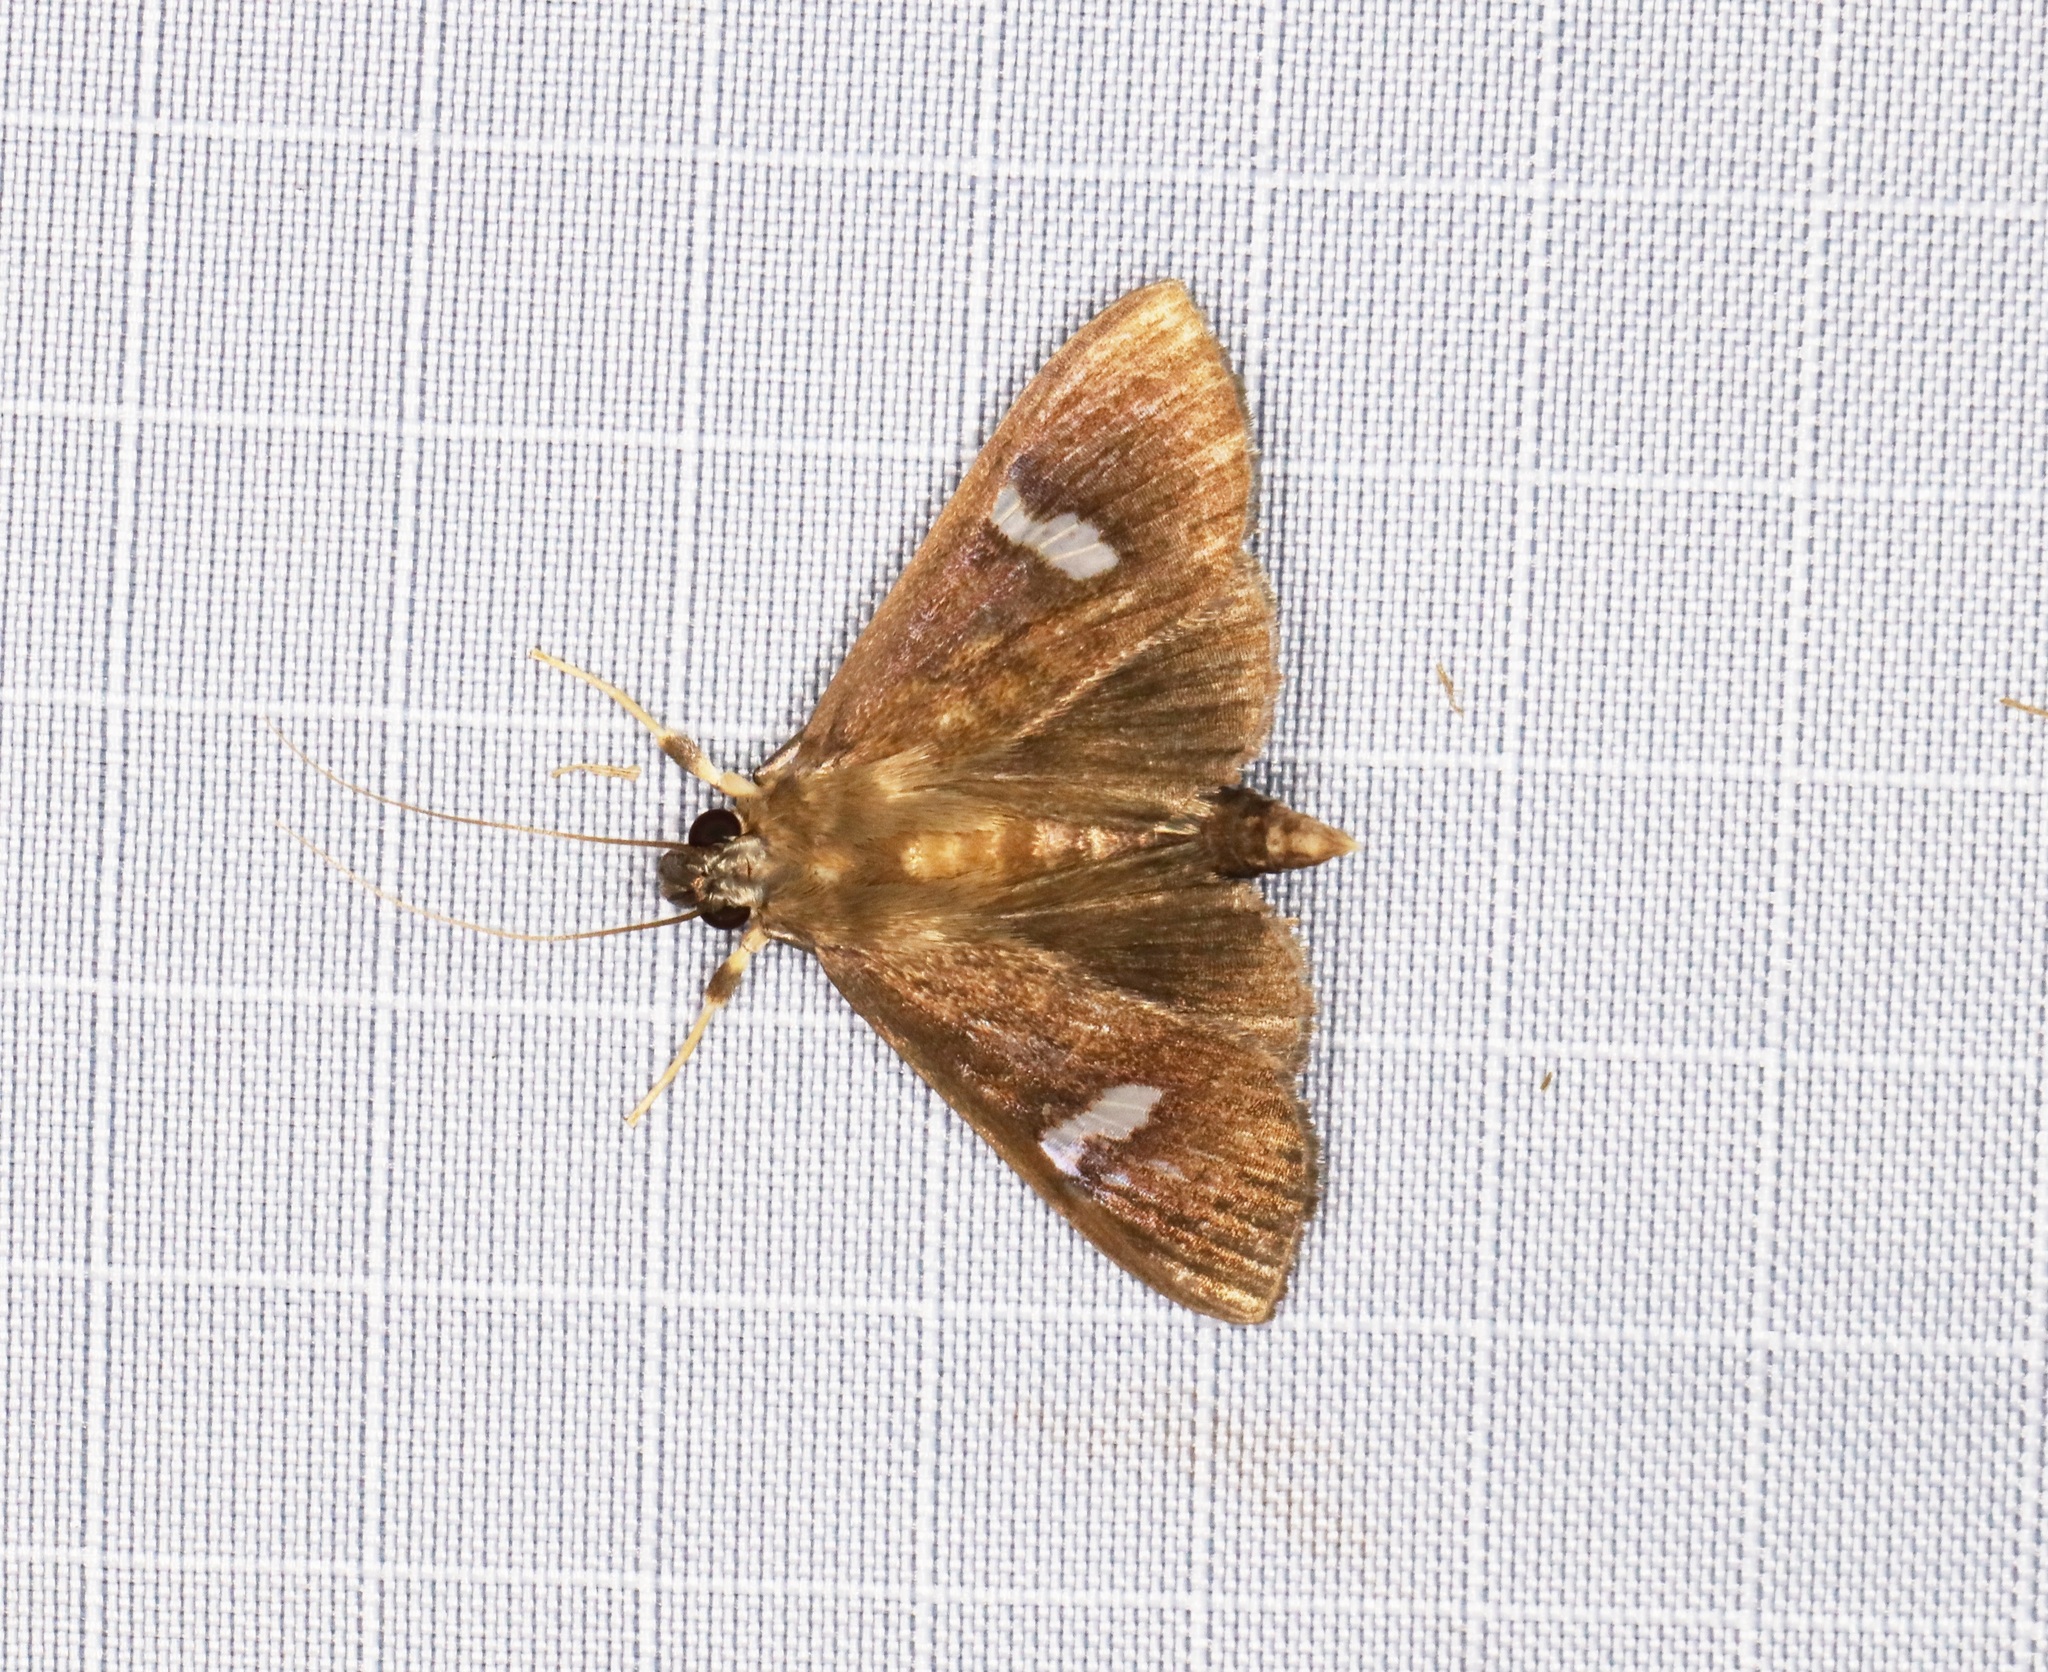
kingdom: Animalia
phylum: Arthropoda
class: Insecta
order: Lepidoptera
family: Crambidae
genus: Nosophora
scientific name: Nosophora albiguttalis
